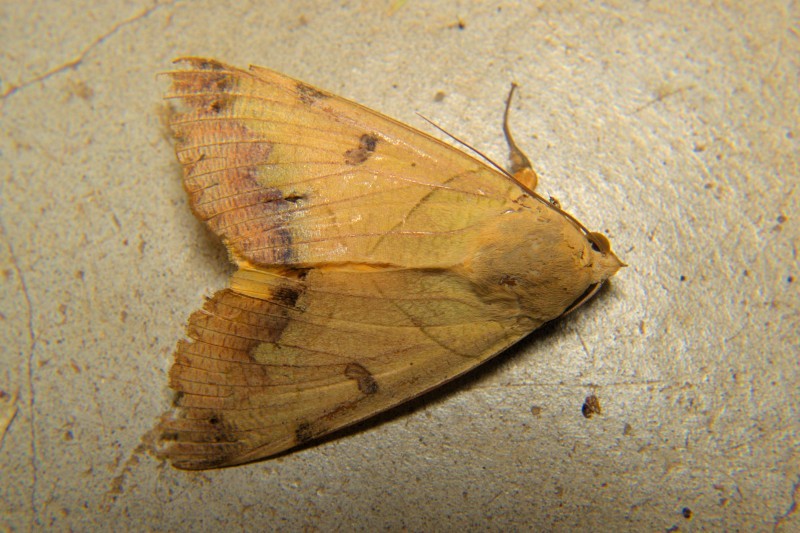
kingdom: Animalia
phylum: Arthropoda
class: Insecta
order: Lepidoptera
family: Erebidae
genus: Ophiusa
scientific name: Ophiusa tirhaca
